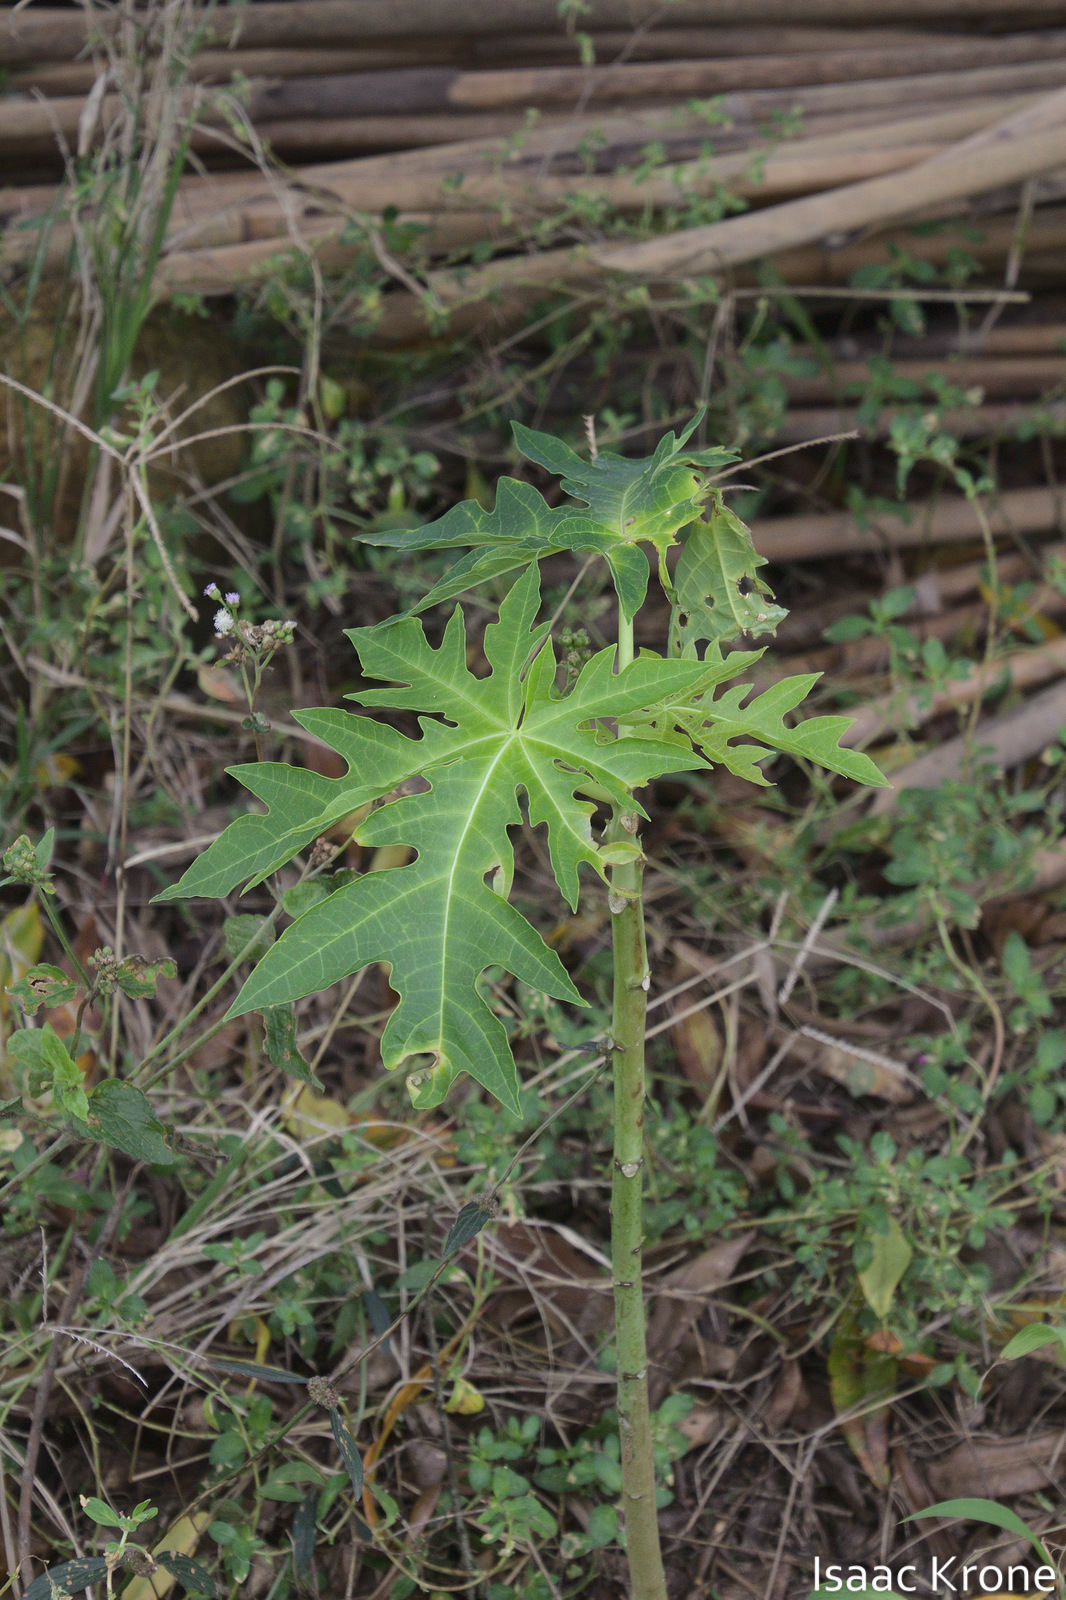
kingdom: Plantae
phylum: Tracheophyta
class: Magnoliopsida
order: Brassicales
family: Caricaceae
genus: Carica
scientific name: Carica papaya
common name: Papaya
